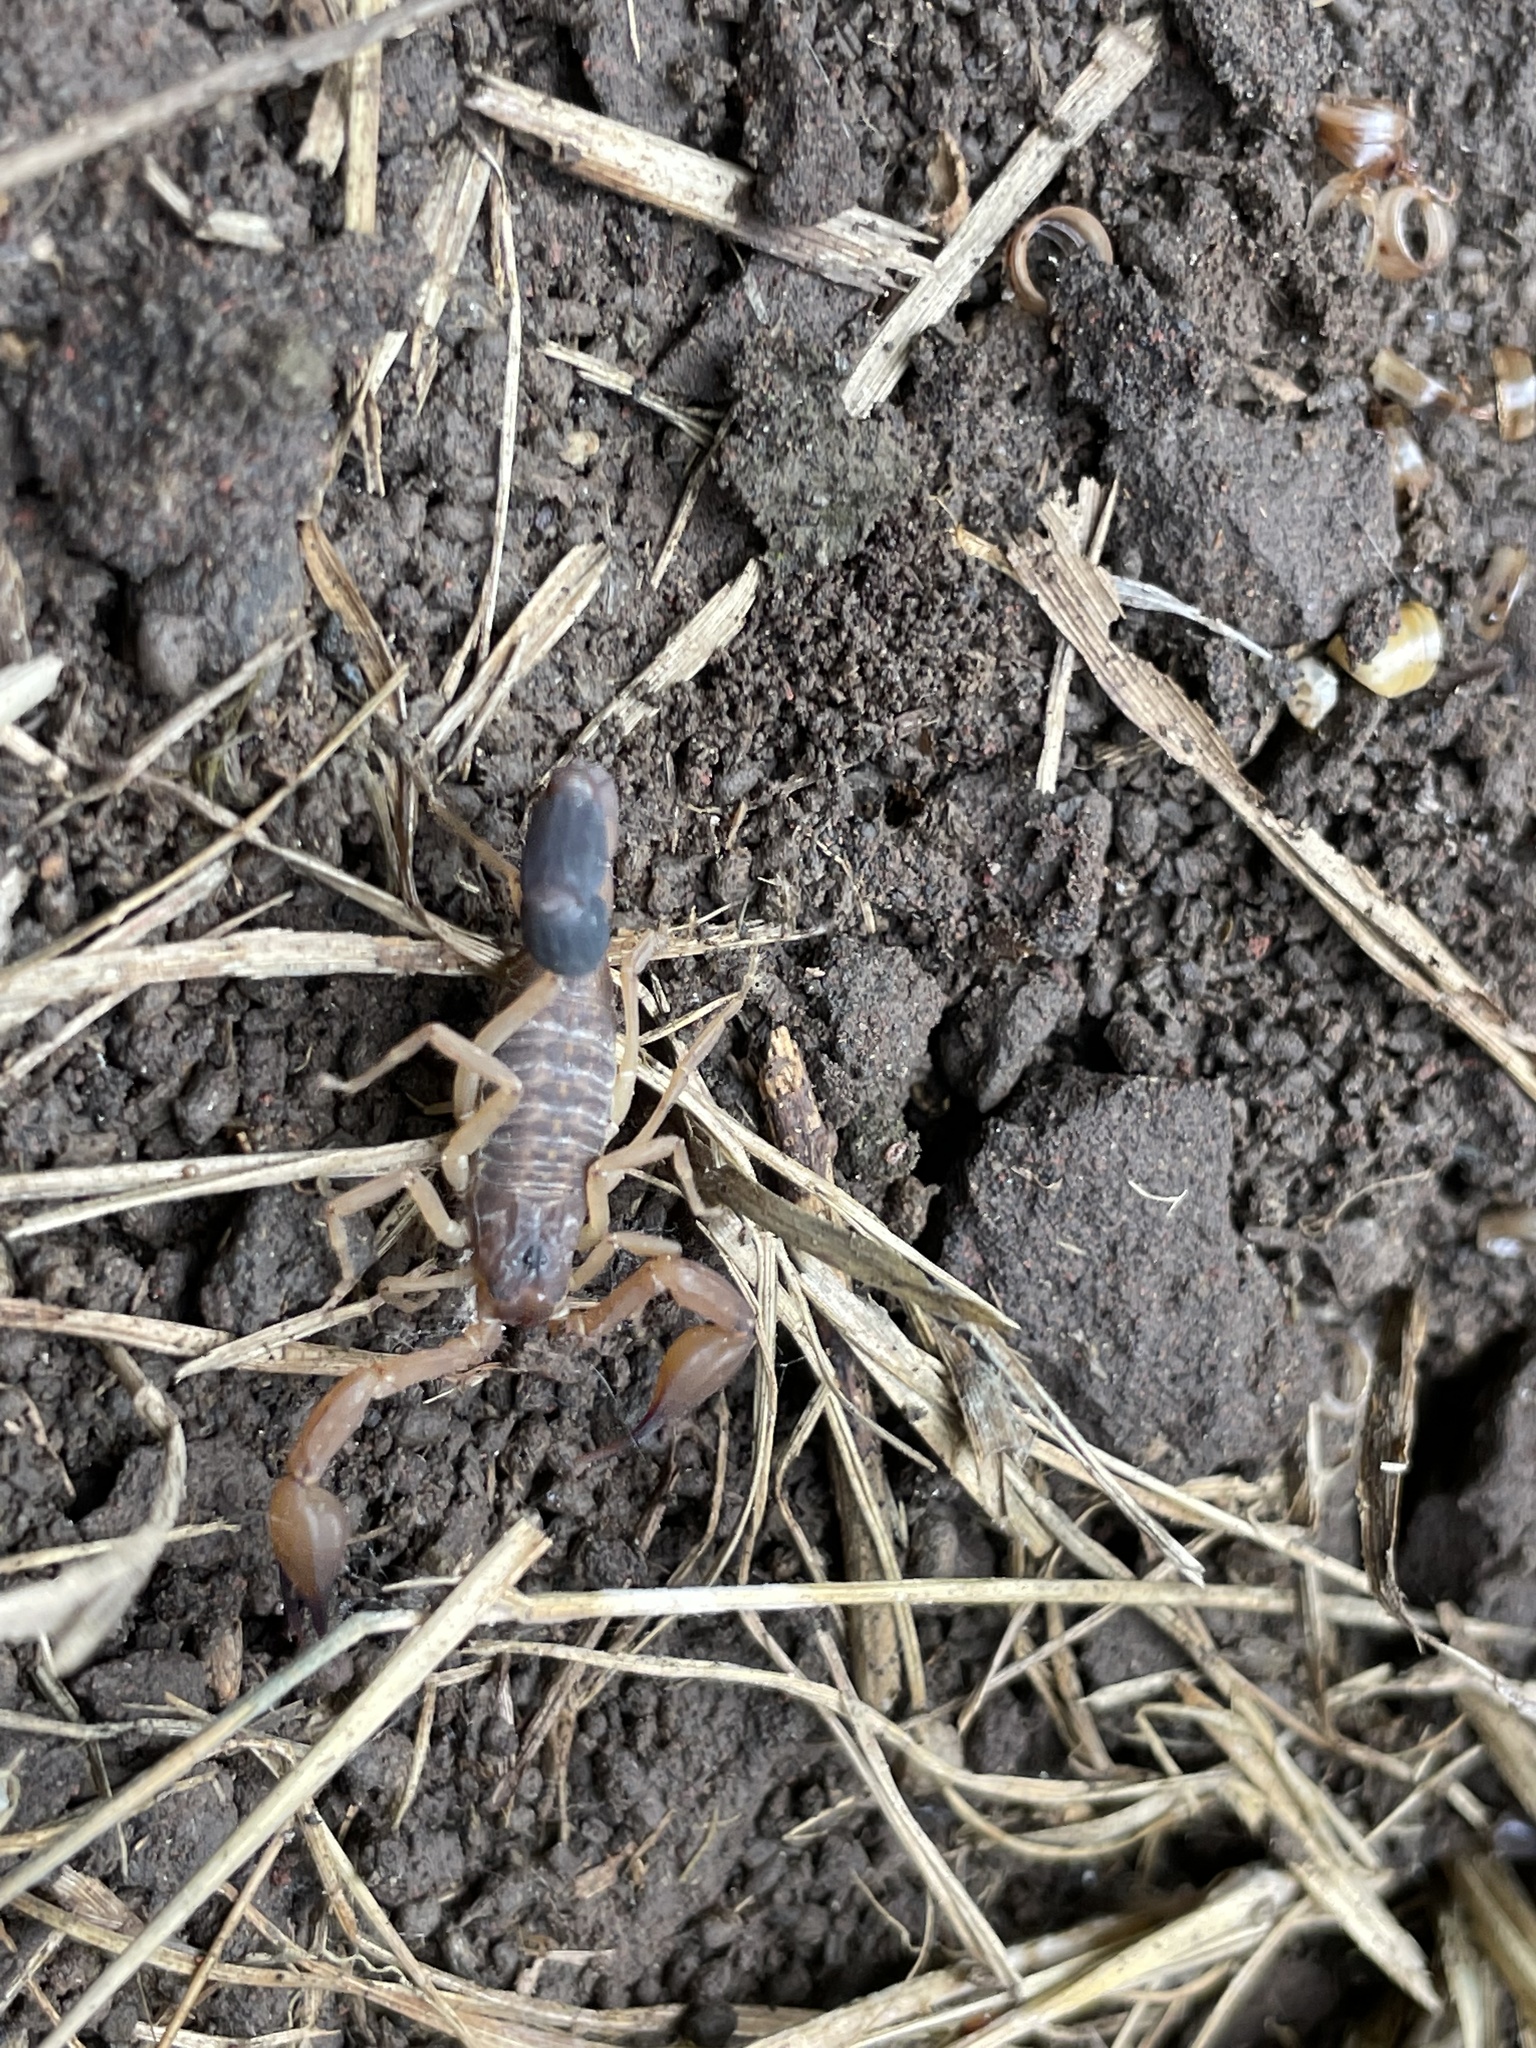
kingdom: Animalia
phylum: Arthropoda
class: Arachnida
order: Scorpiones
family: Buthidae
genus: Tityus
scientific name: Tityus pugilator
